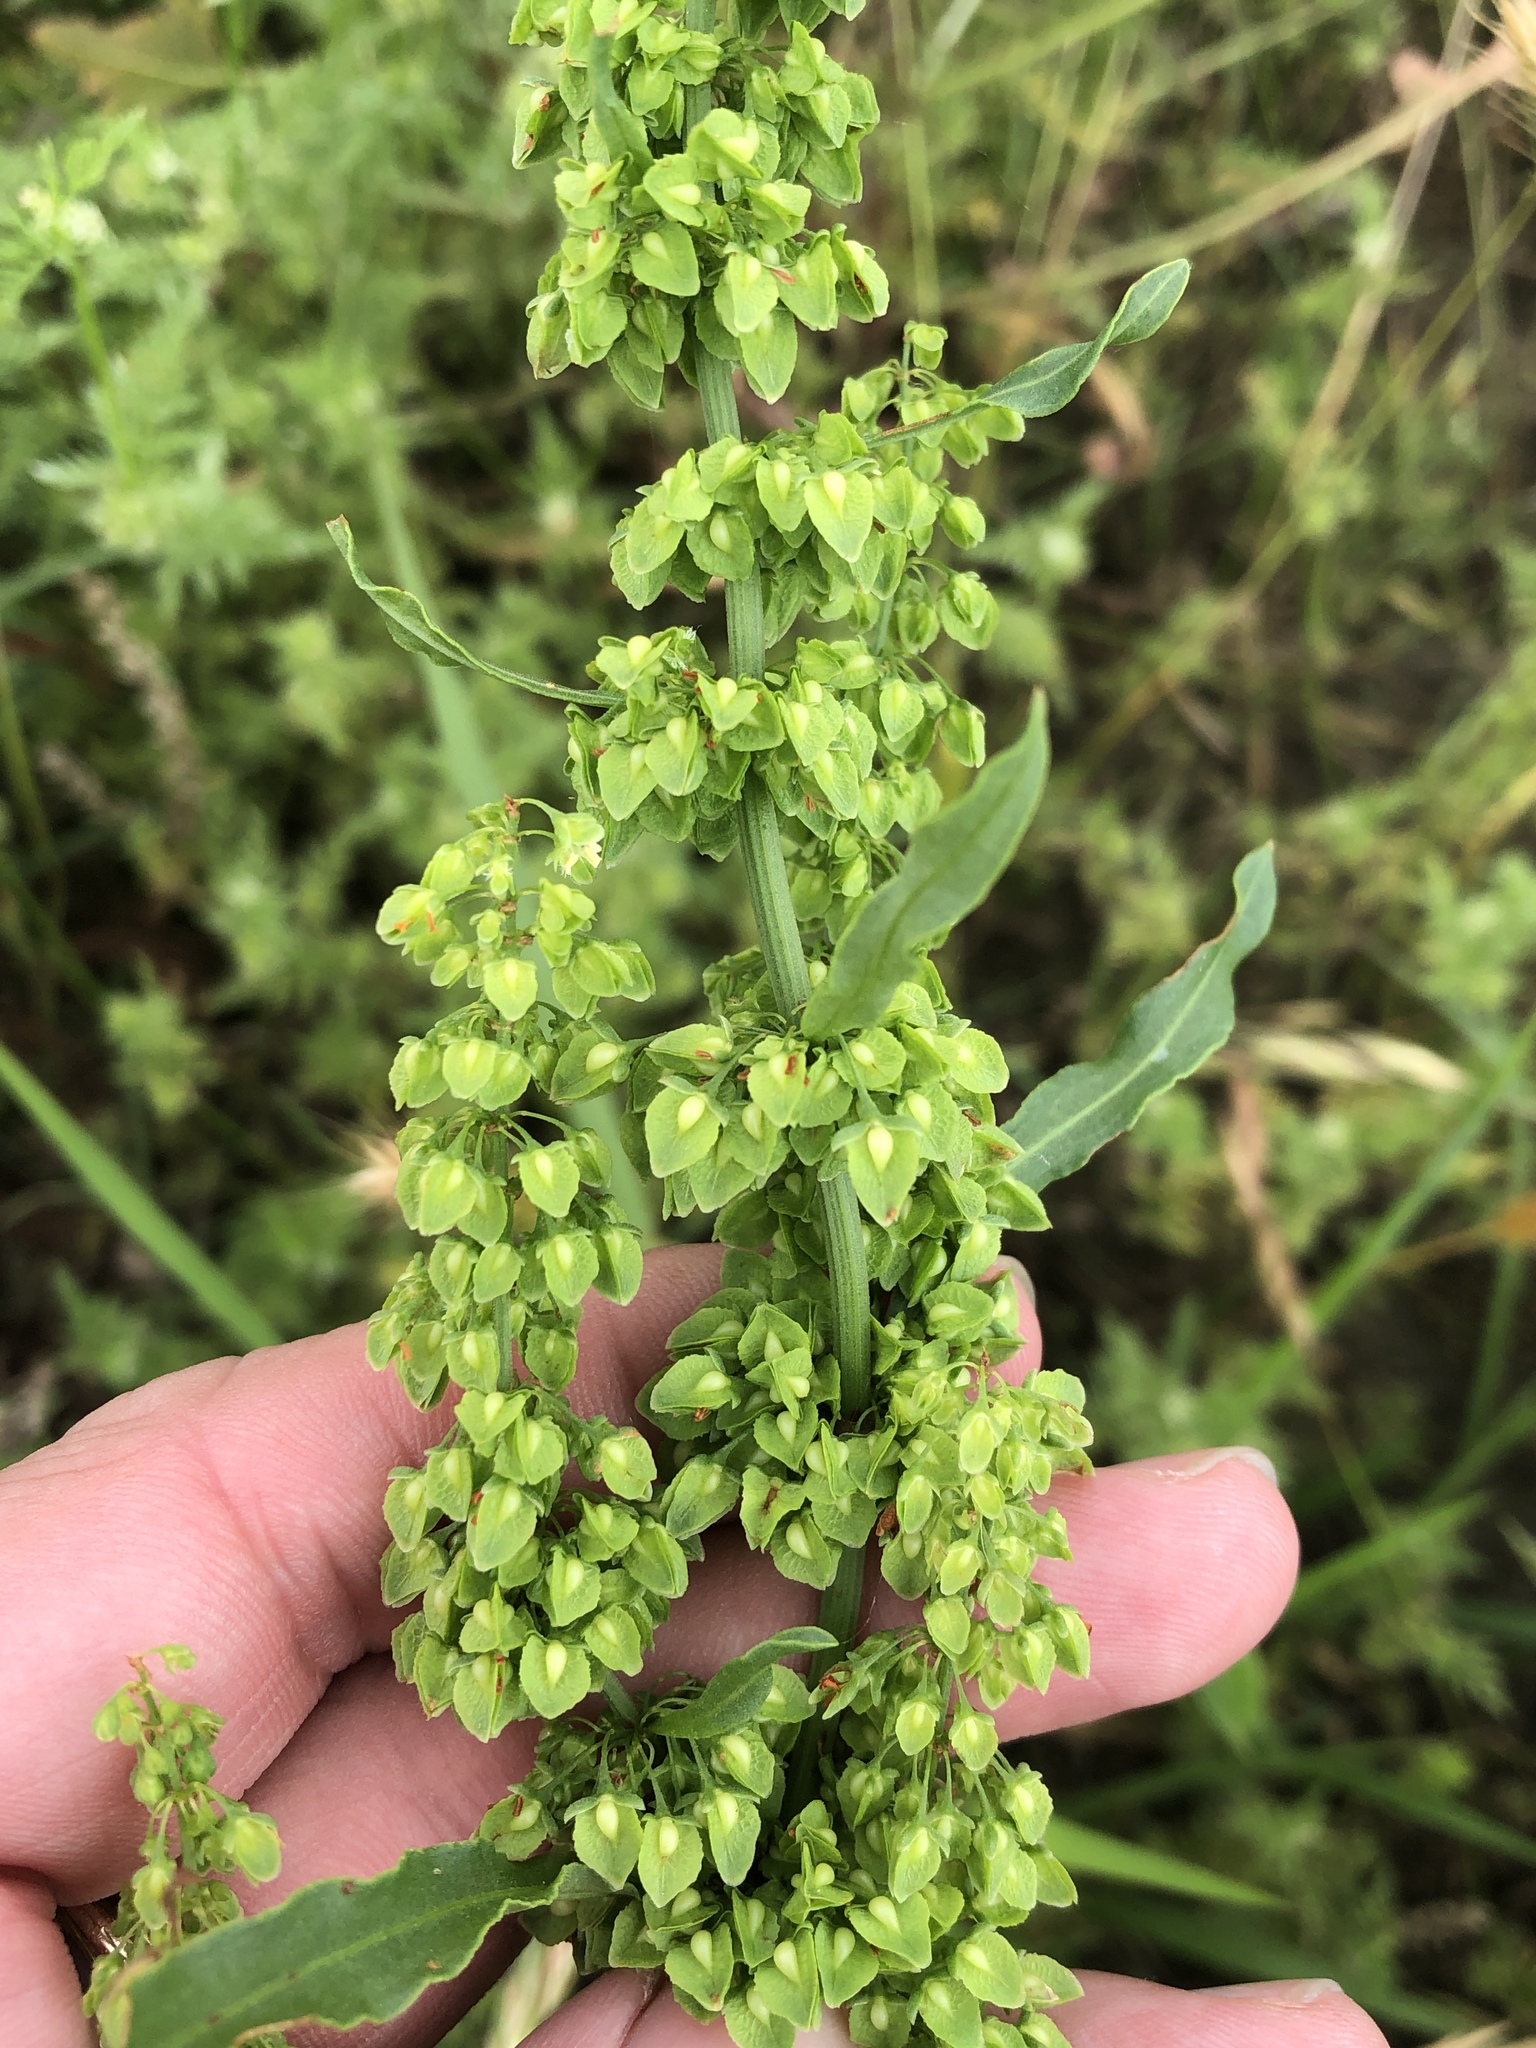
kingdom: Plantae
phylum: Tracheophyta
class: Magnoliopsida
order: Caryophyllales
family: Polygonaceae
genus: Rumex
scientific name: Rumex crispus
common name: Curled dock
